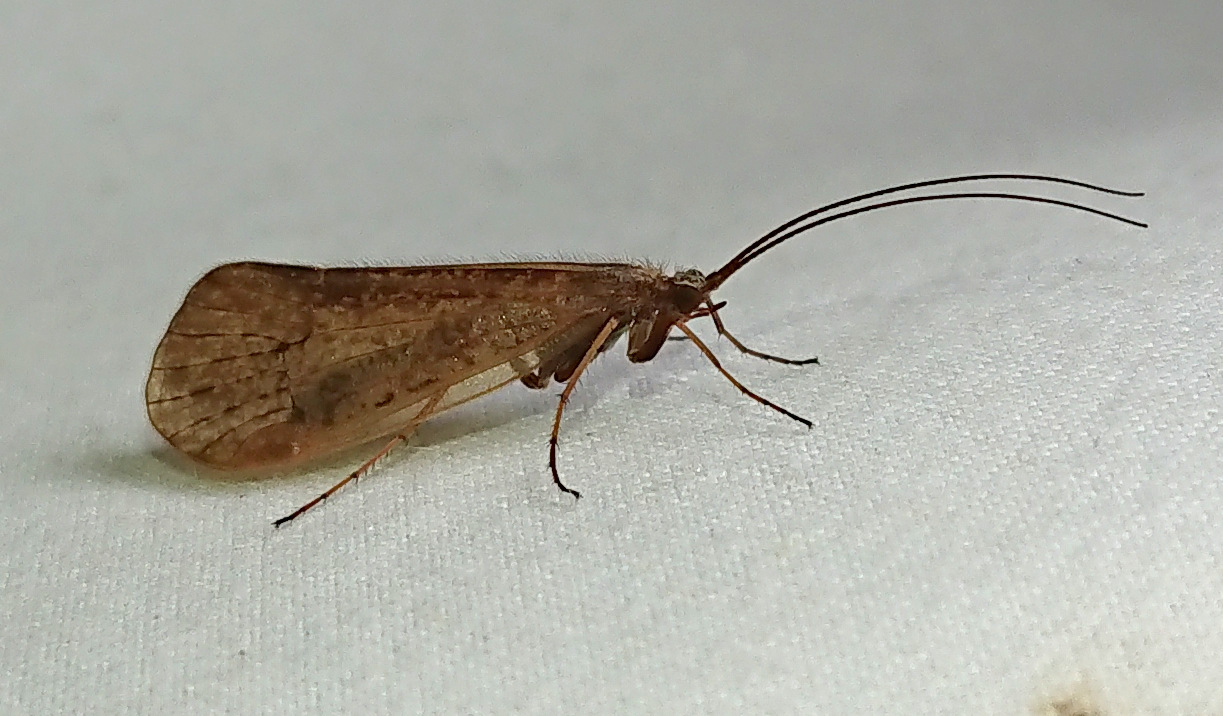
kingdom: Animalia
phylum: Arthropoda
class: Insecta
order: Trichoptera
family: Limnephilidae
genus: Frenesia
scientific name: Frenesia missa
